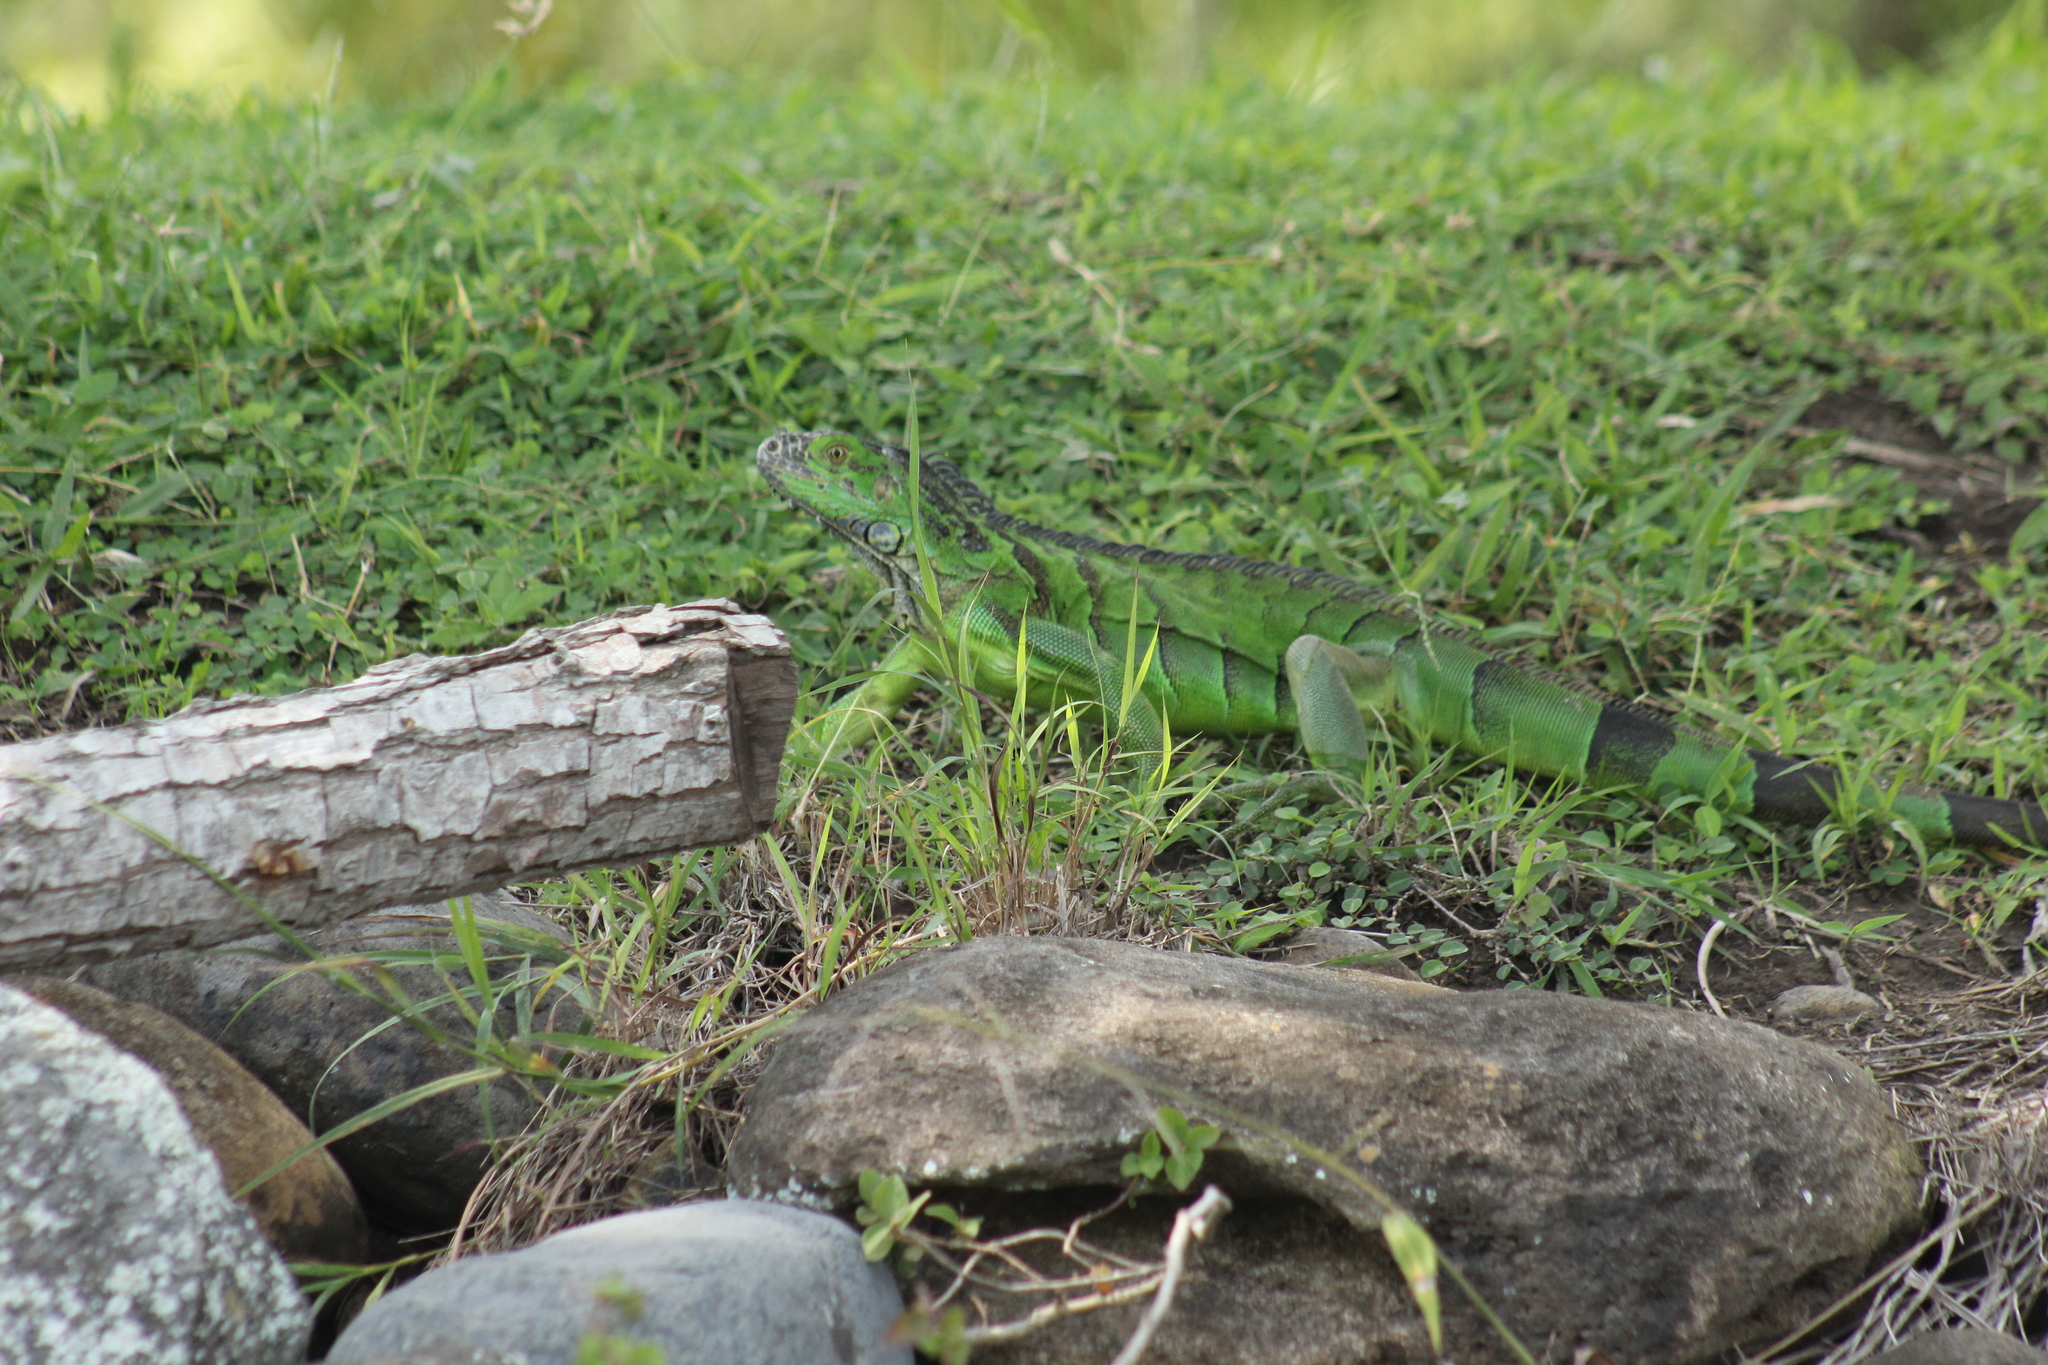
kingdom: Animalia
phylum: Chordata
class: Squamata
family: Iguanidae
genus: Iguana
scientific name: Iguana iguana
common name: Green iguana
